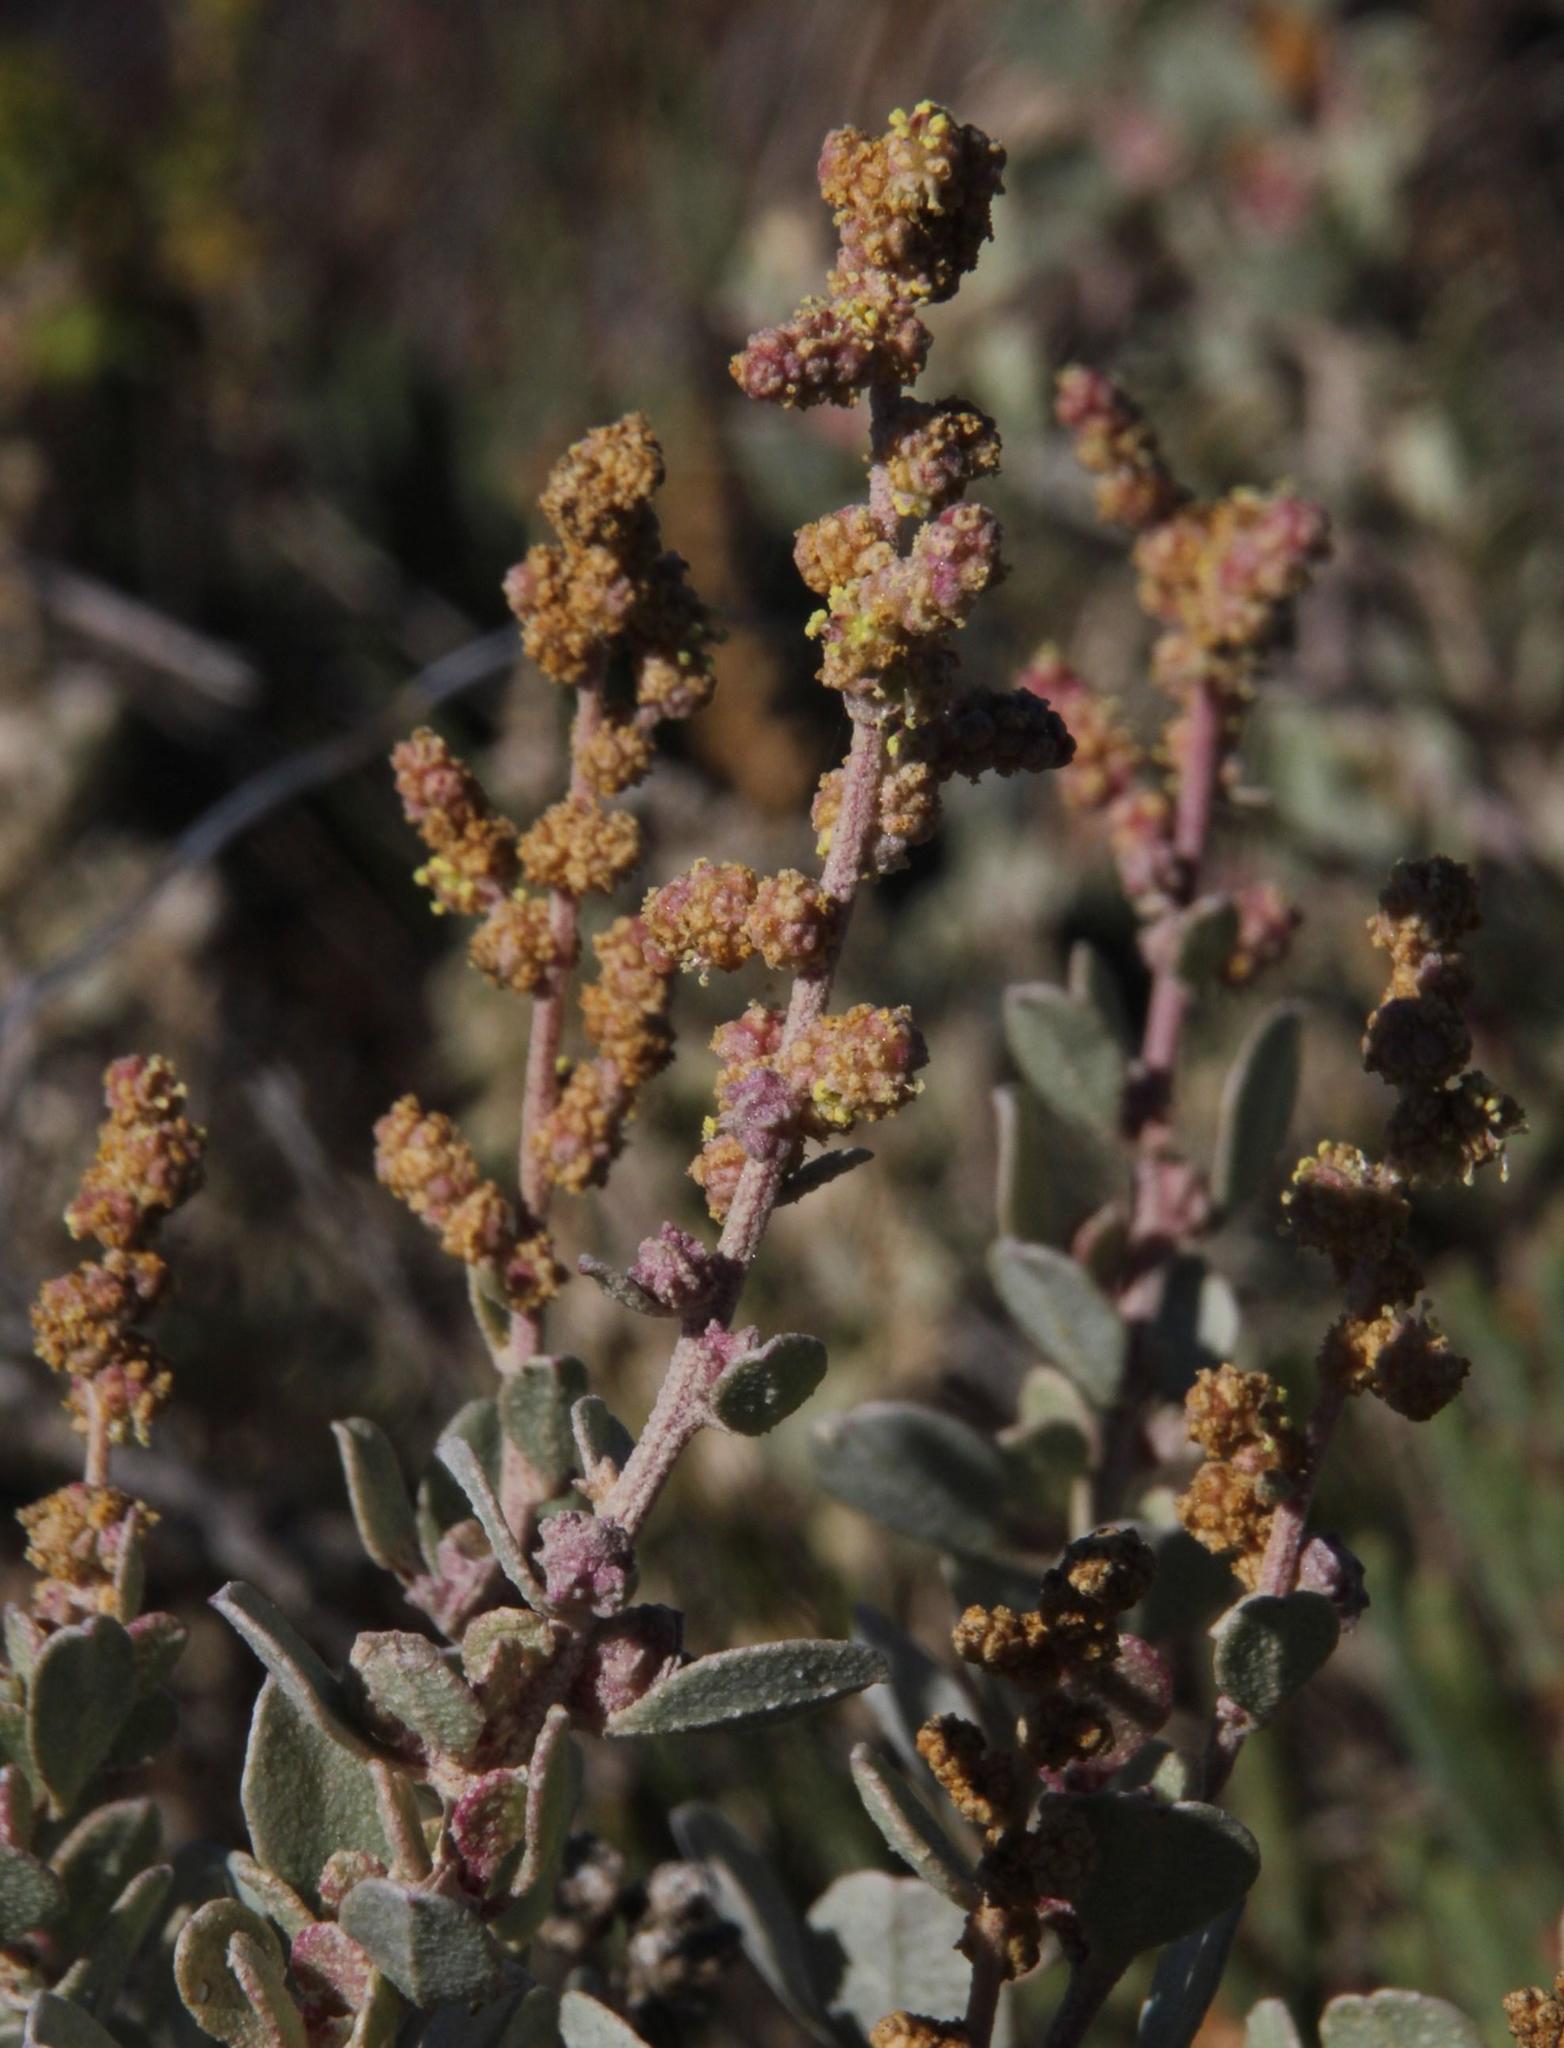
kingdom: Plantae
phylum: Tracheophyta
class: Magnoliopsida
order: Caryophyllales
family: Amaranthaceae
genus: Atriplex
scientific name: Atriplex vestita
